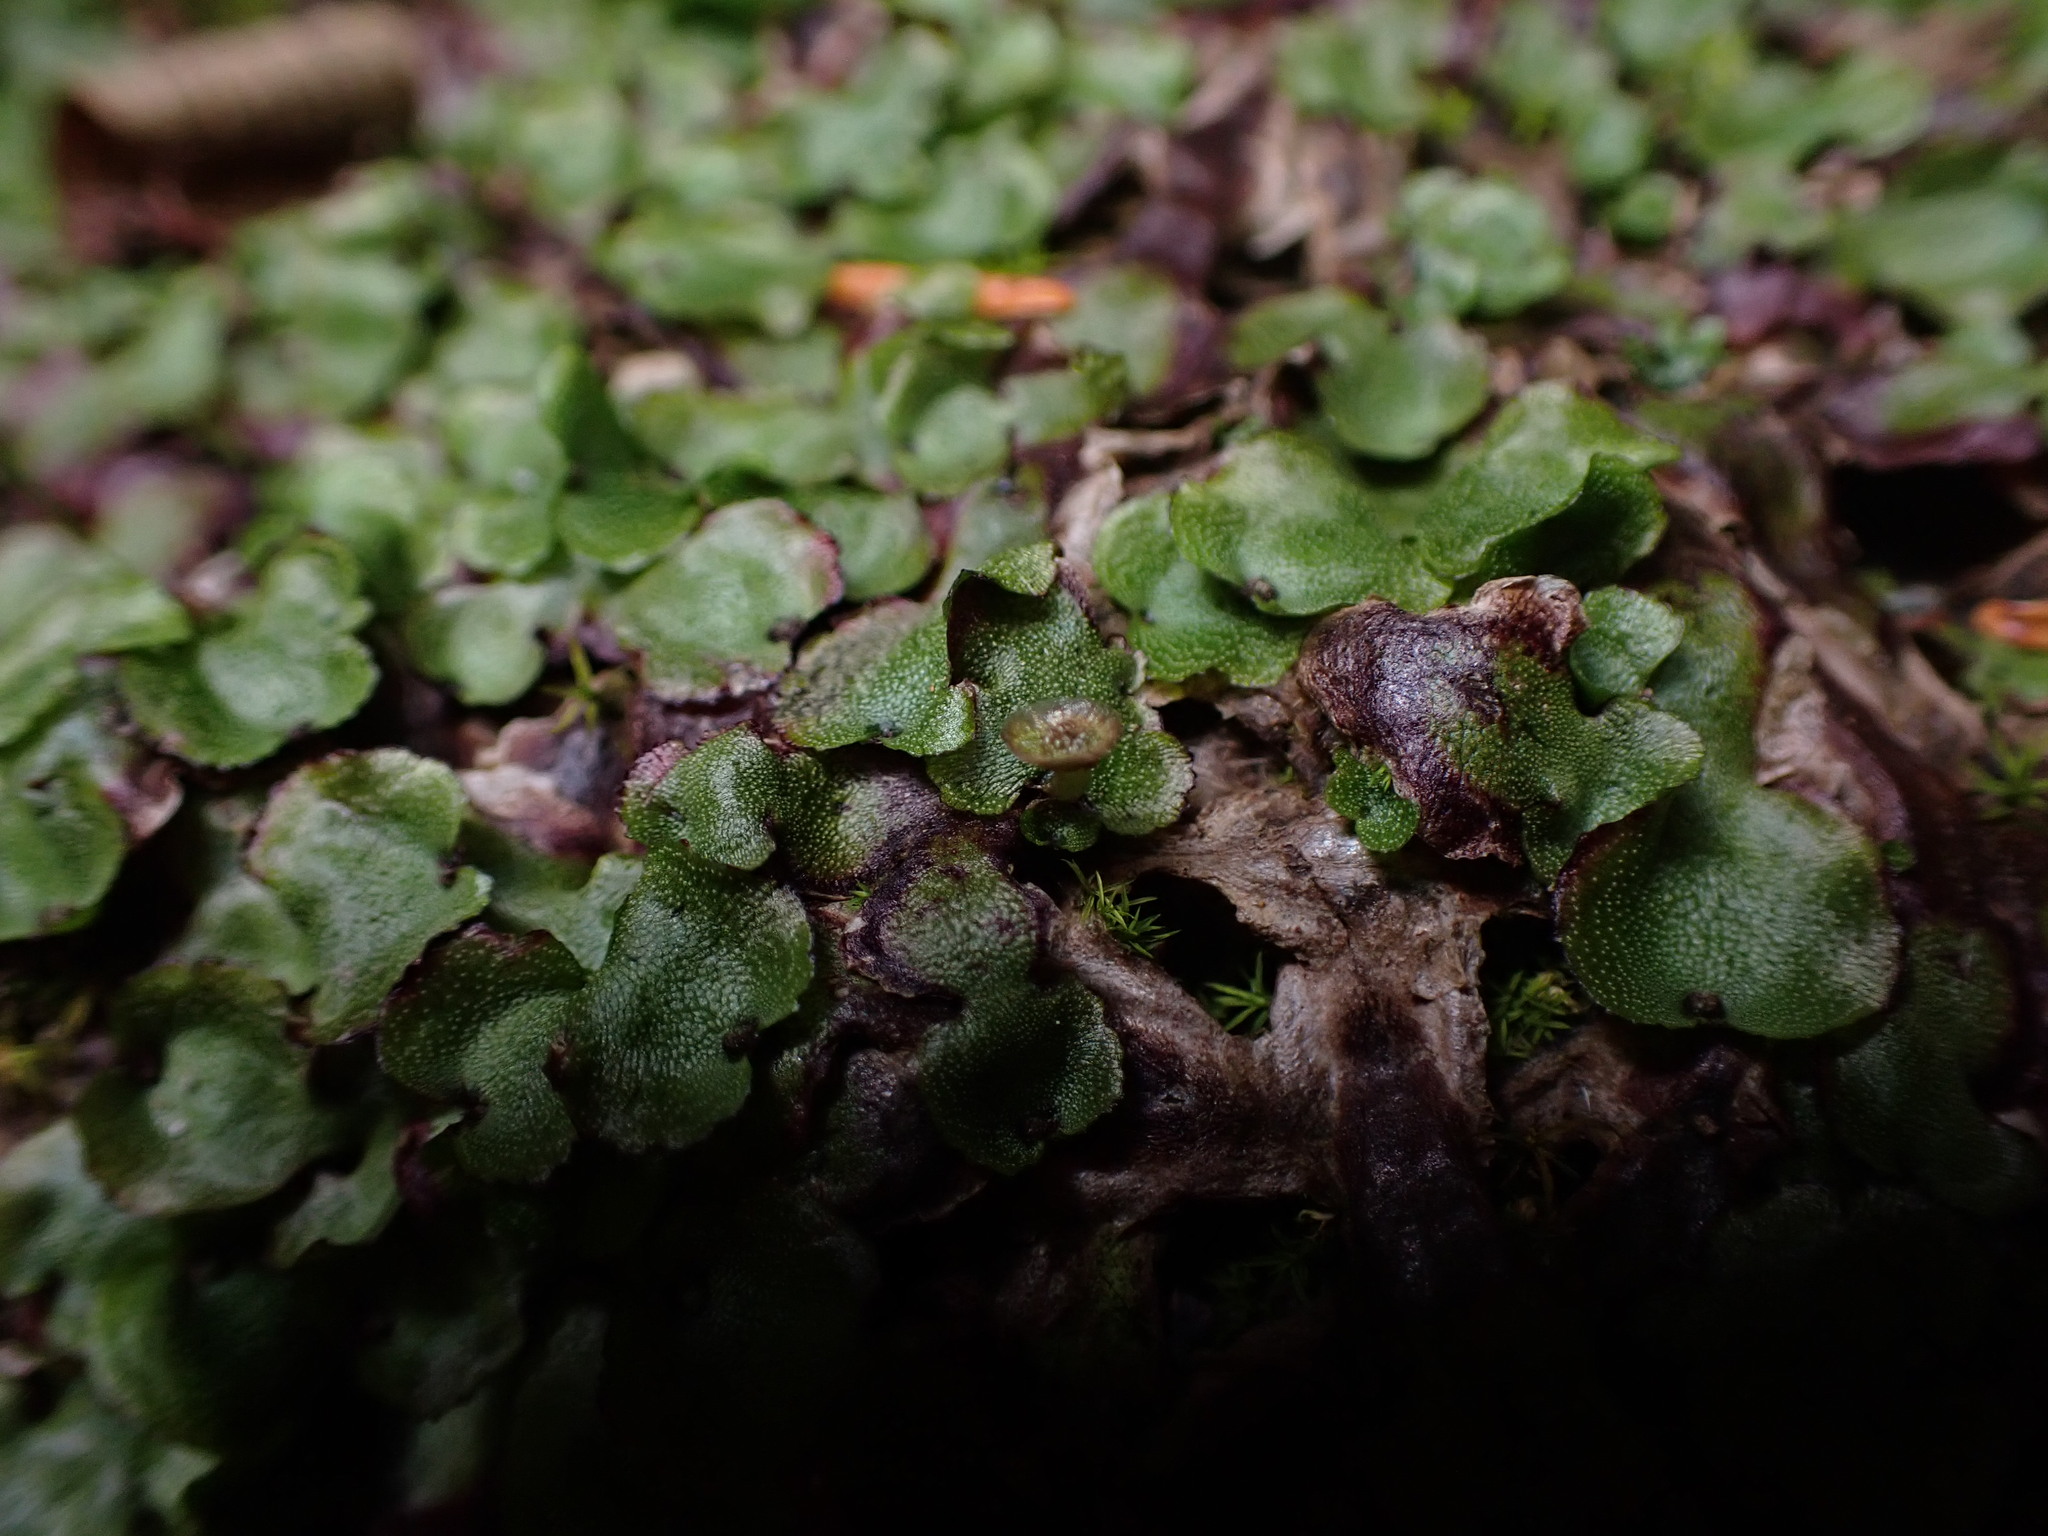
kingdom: Plantae
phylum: Marchantiophyta
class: Marchantiopsida
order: Marchantiales
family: Marchantiaceae
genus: Marchantia
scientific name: Marchantia quadrata
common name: Narrow mushroom-headed liverwort
